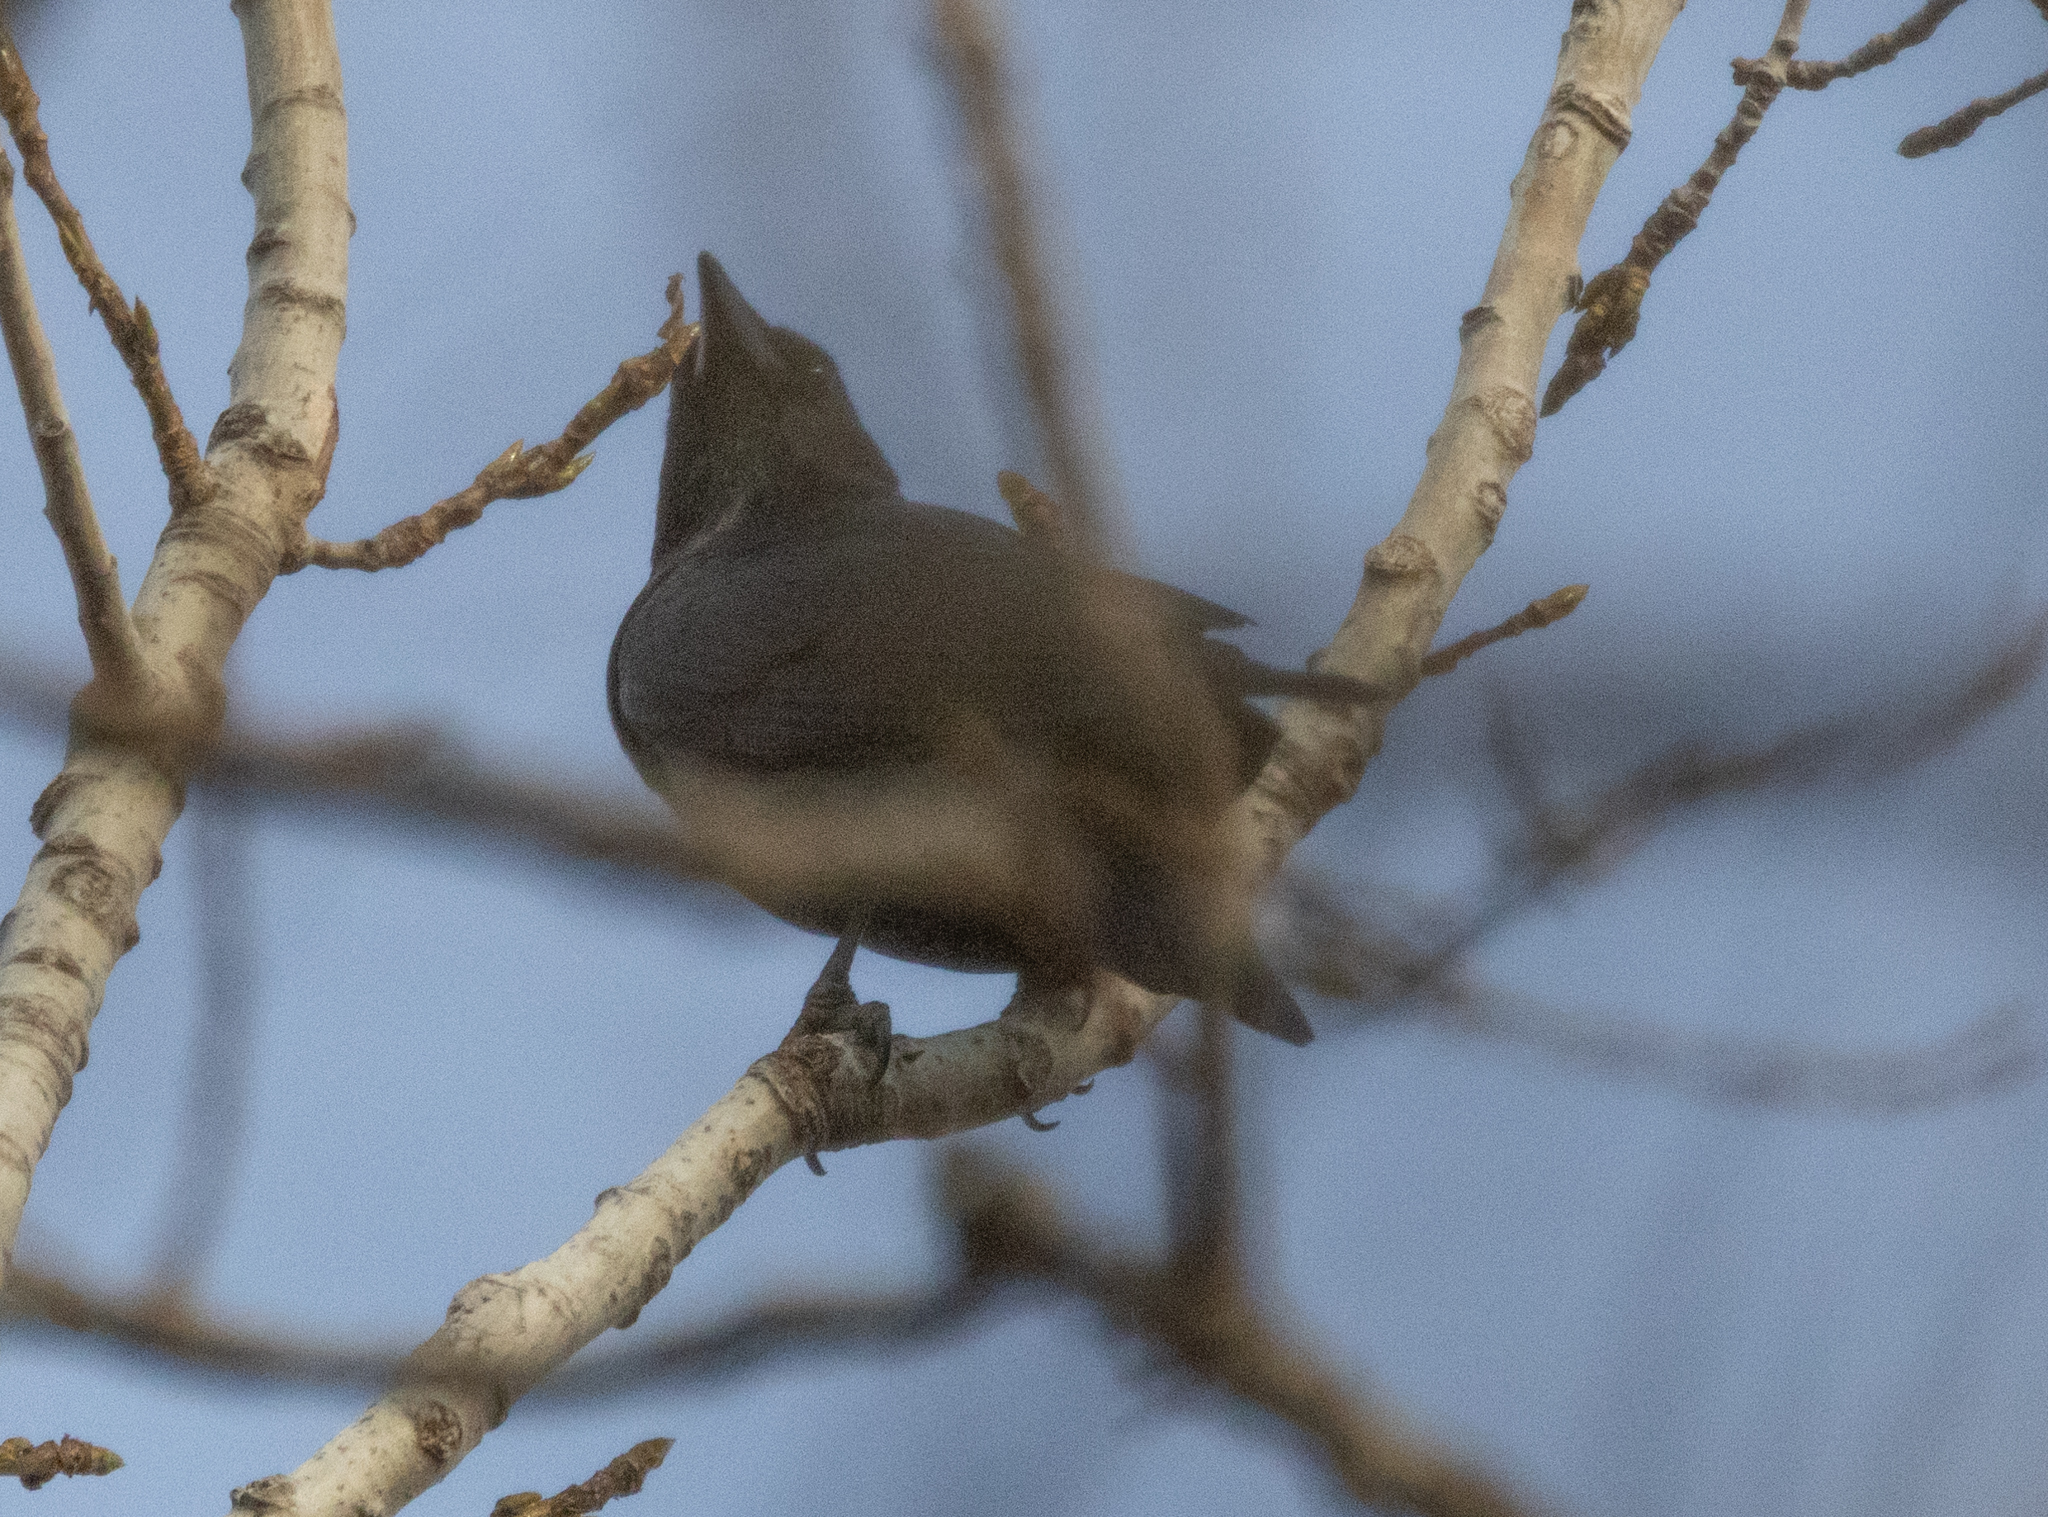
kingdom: Animalia
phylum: Chordata
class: Aves
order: Passeriformes
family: Corvidae
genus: Corvus
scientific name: Corvus brachyrhynchos
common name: American crow
